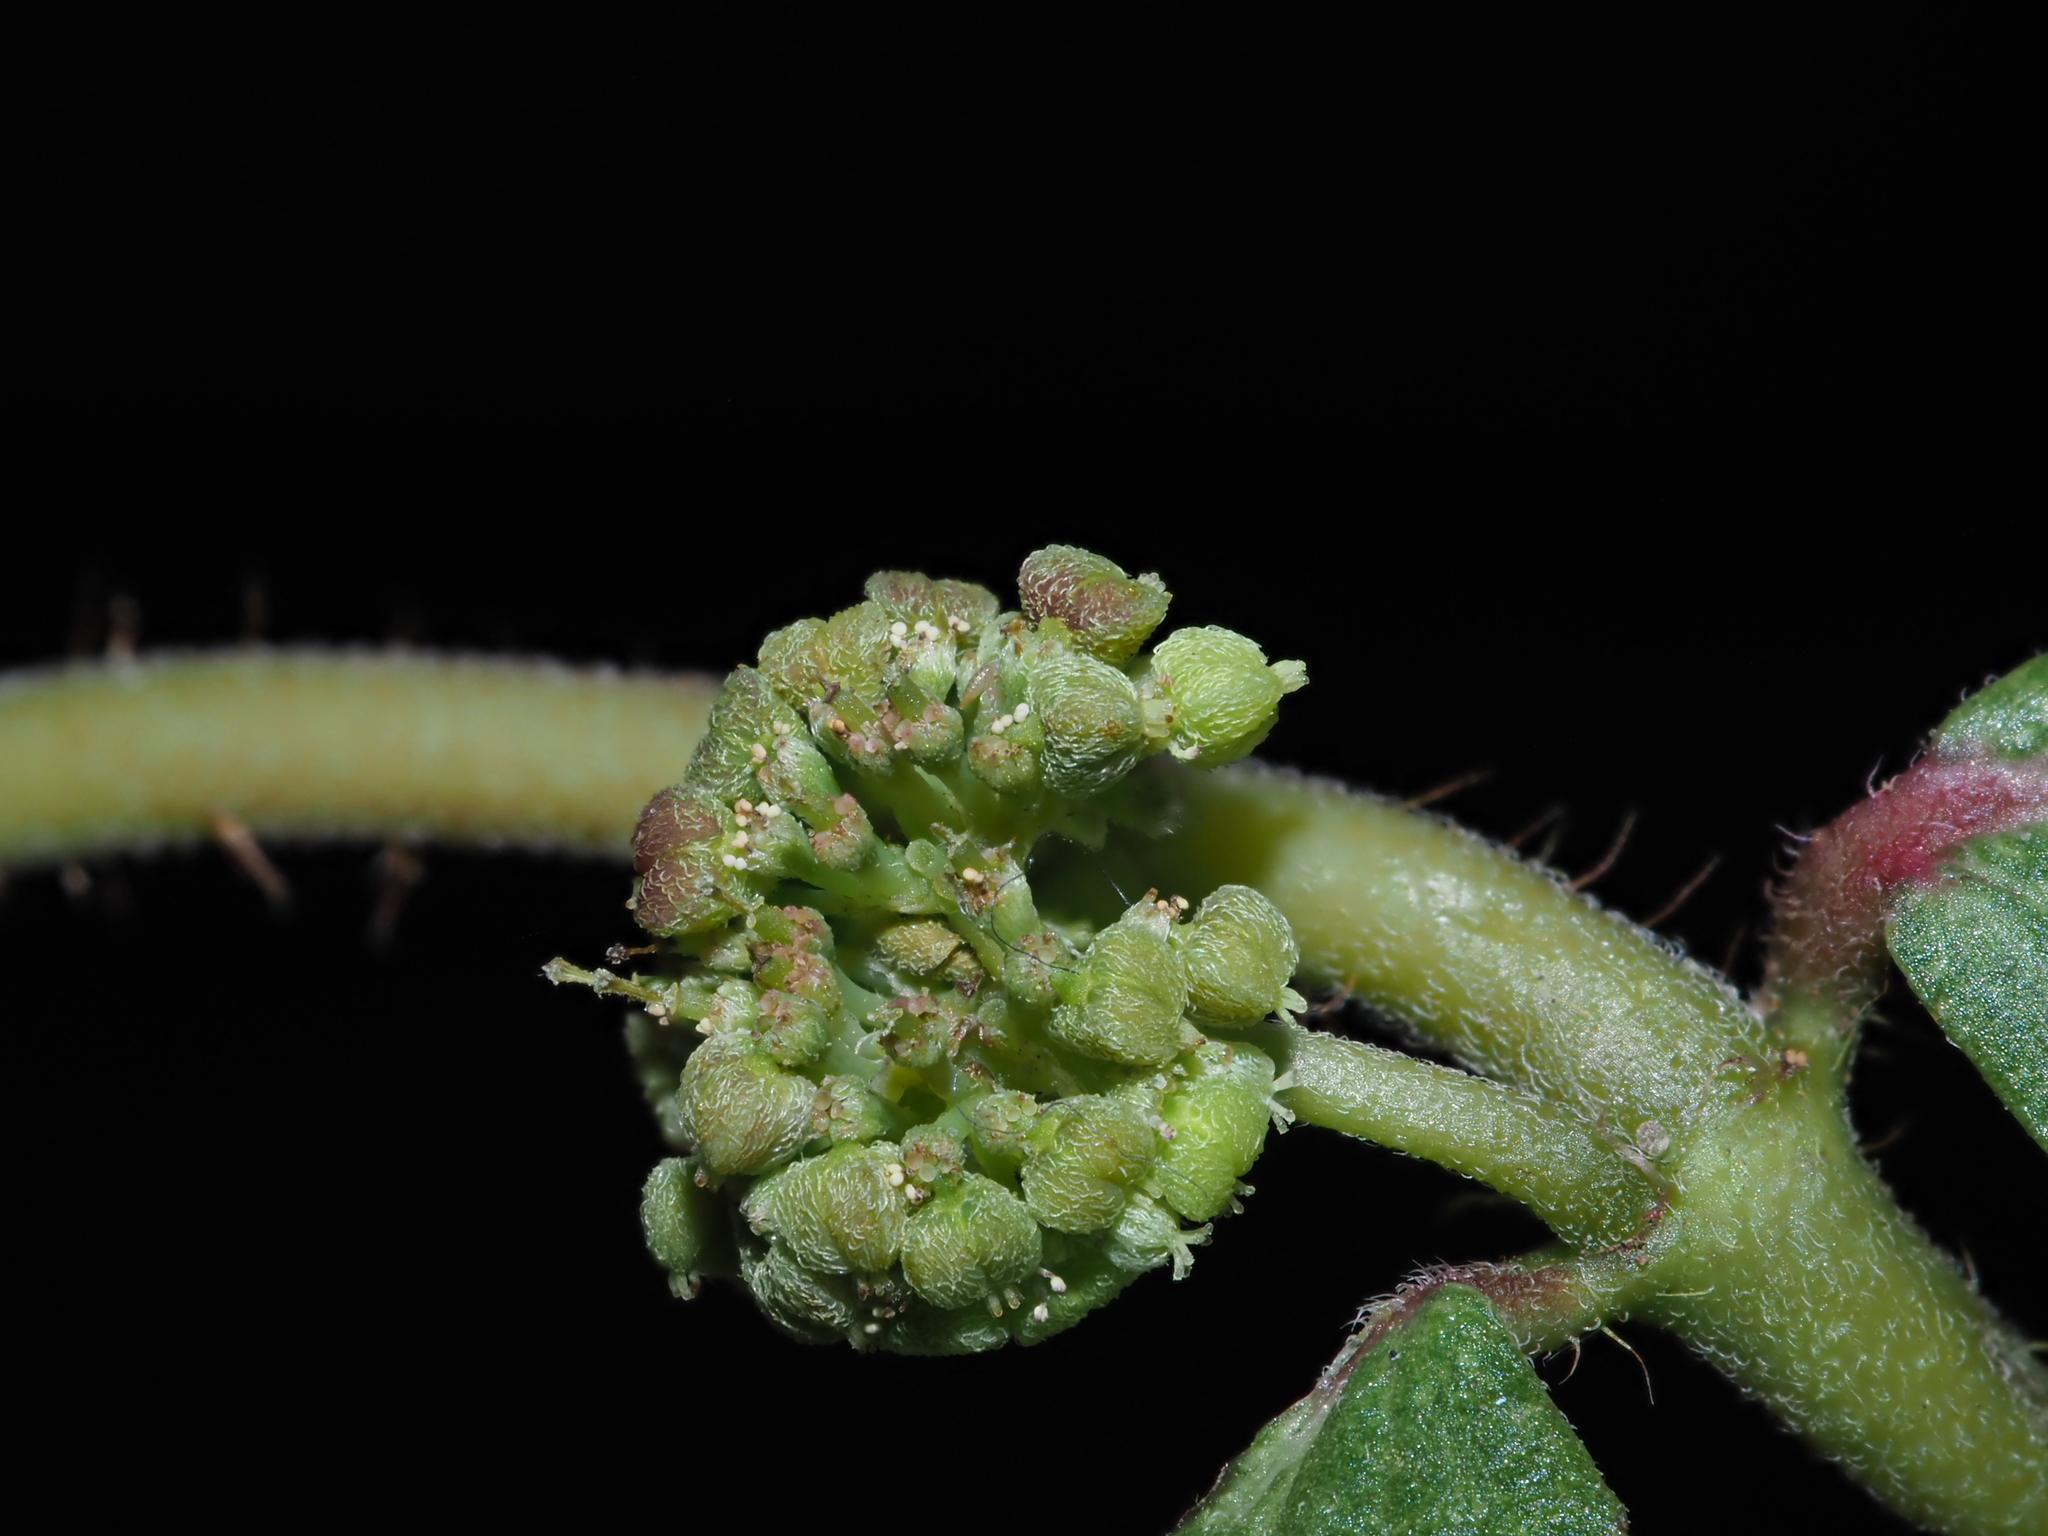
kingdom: Plantae
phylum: Tracheophyta
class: Magnoliopsida
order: Malpighiales
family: Euphorbiaceae
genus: Euphorbia
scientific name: Euphorbia hirta
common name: Pillpod sandmat
